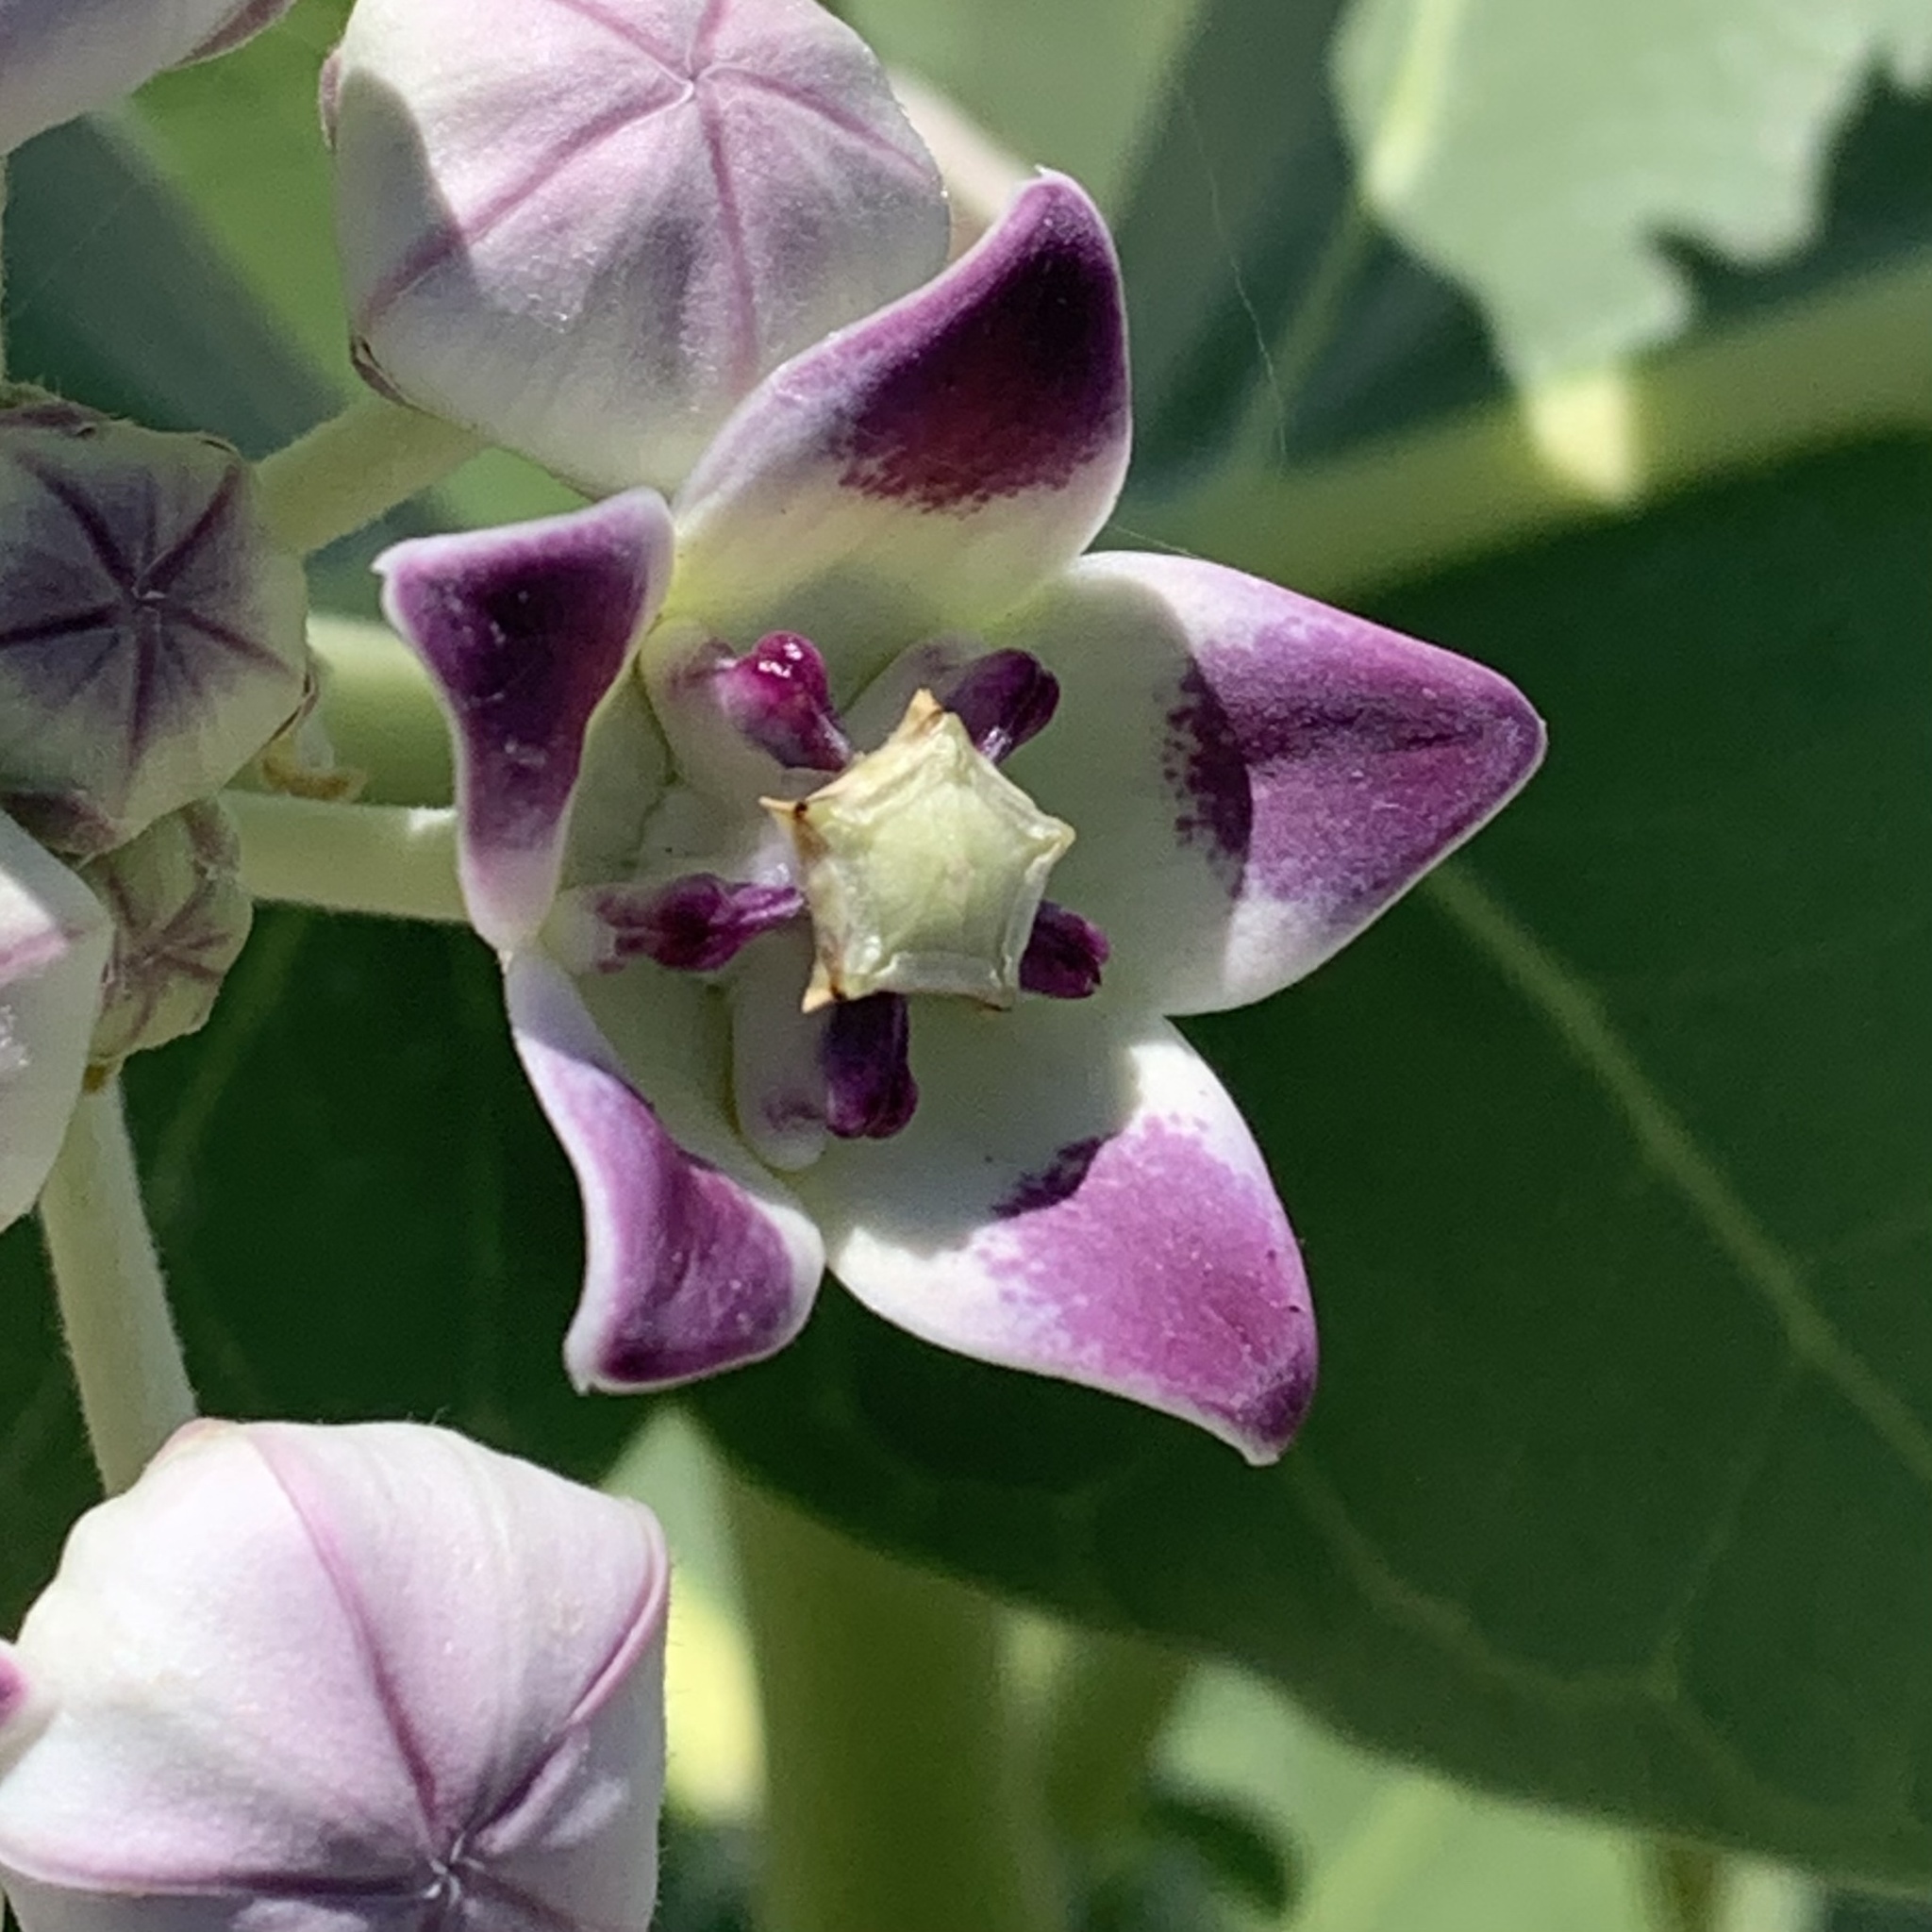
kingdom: Plantae
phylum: Tracheophyta
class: Magnoliopsida
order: Gentianales
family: Apocynaceae
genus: Calotropis
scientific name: Calotropis procera
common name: Roostertree
